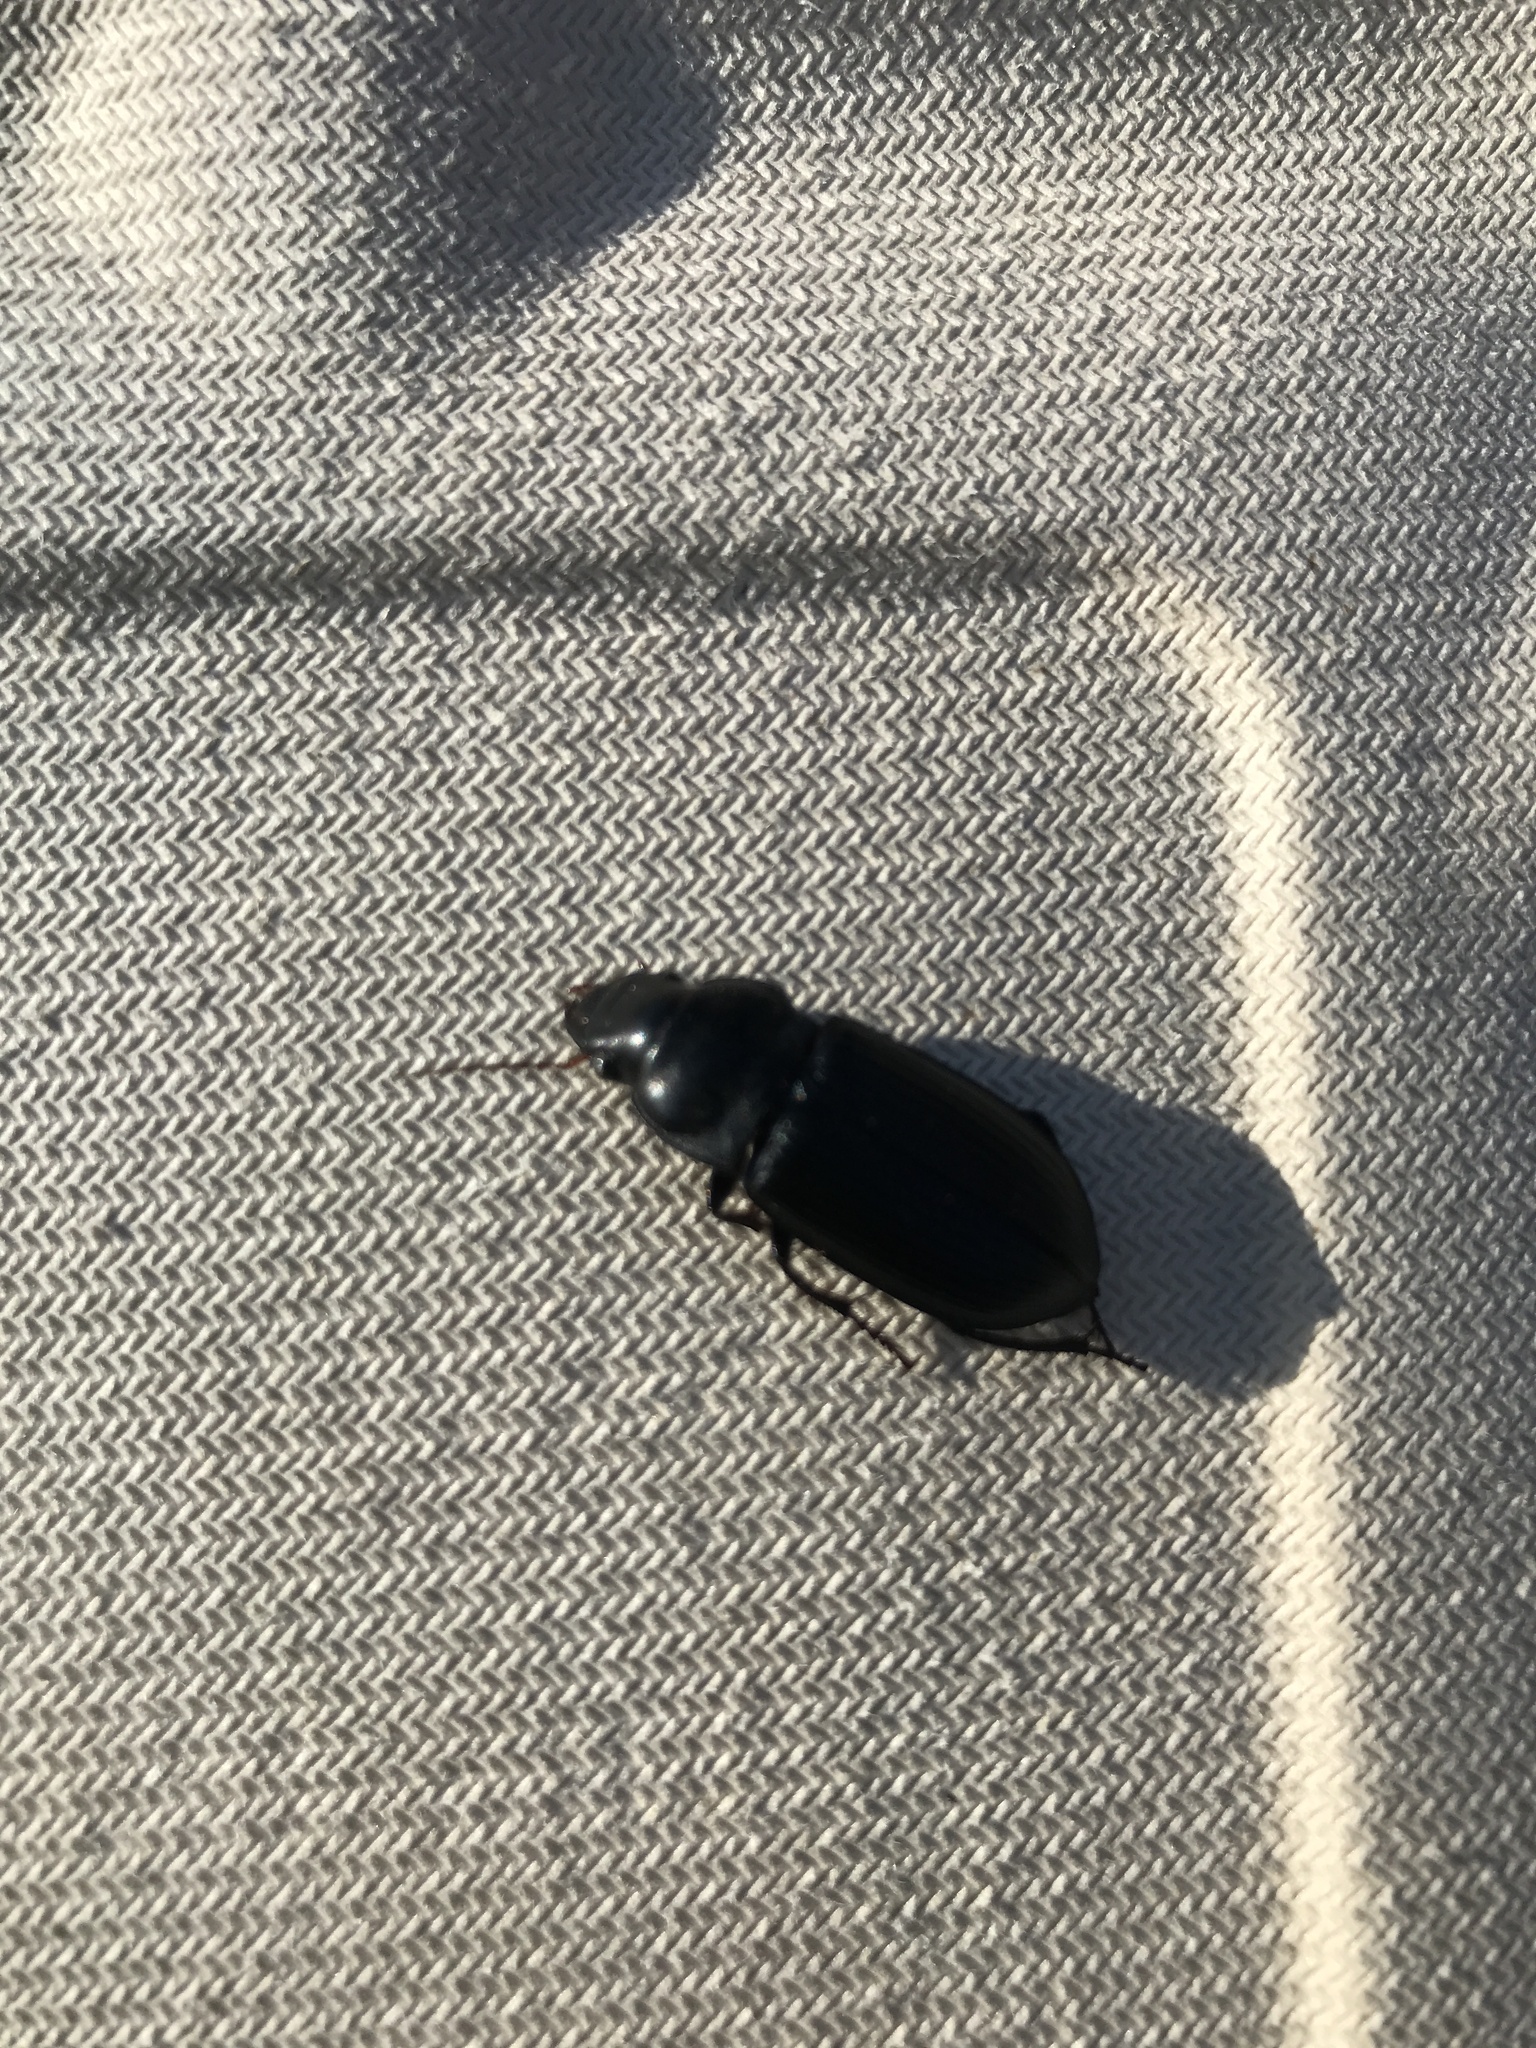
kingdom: Animalia
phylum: Arthropoda
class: Insecta
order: Coleoptera
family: Carabidae
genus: Harpalus
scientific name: Harpalus caliginosus
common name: Murky ground beetle
